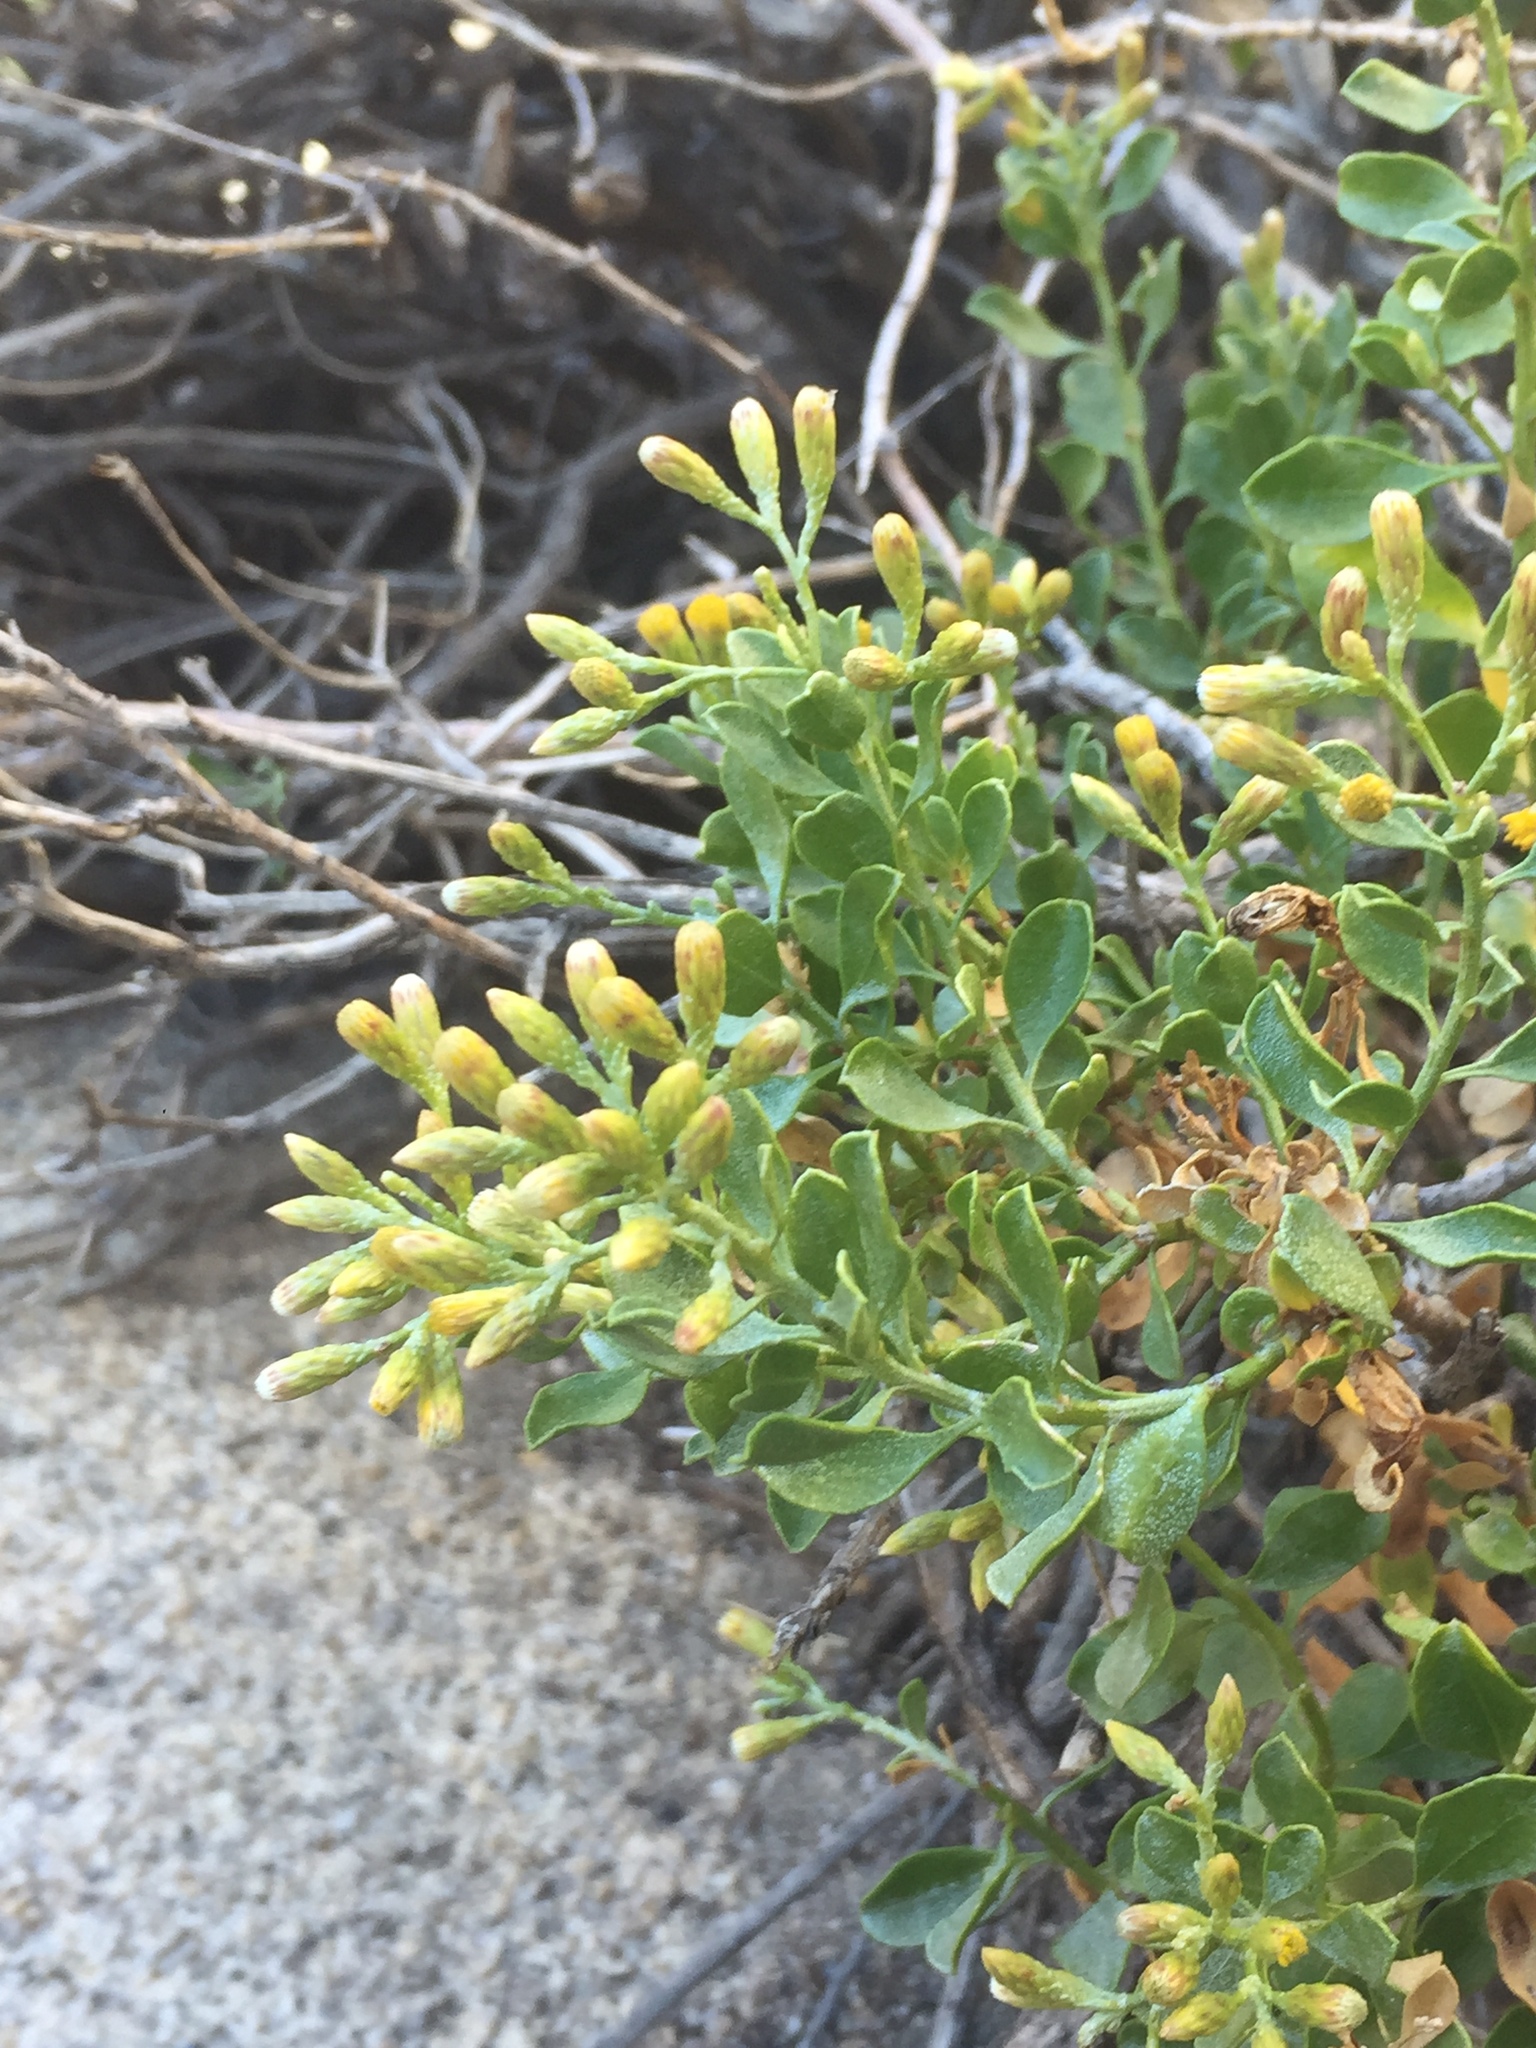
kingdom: Plantae
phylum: Tracheophyta
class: Magnoliopsida
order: Asterales
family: Asteraceae
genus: Ericameria
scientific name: Ericameria cuneata
